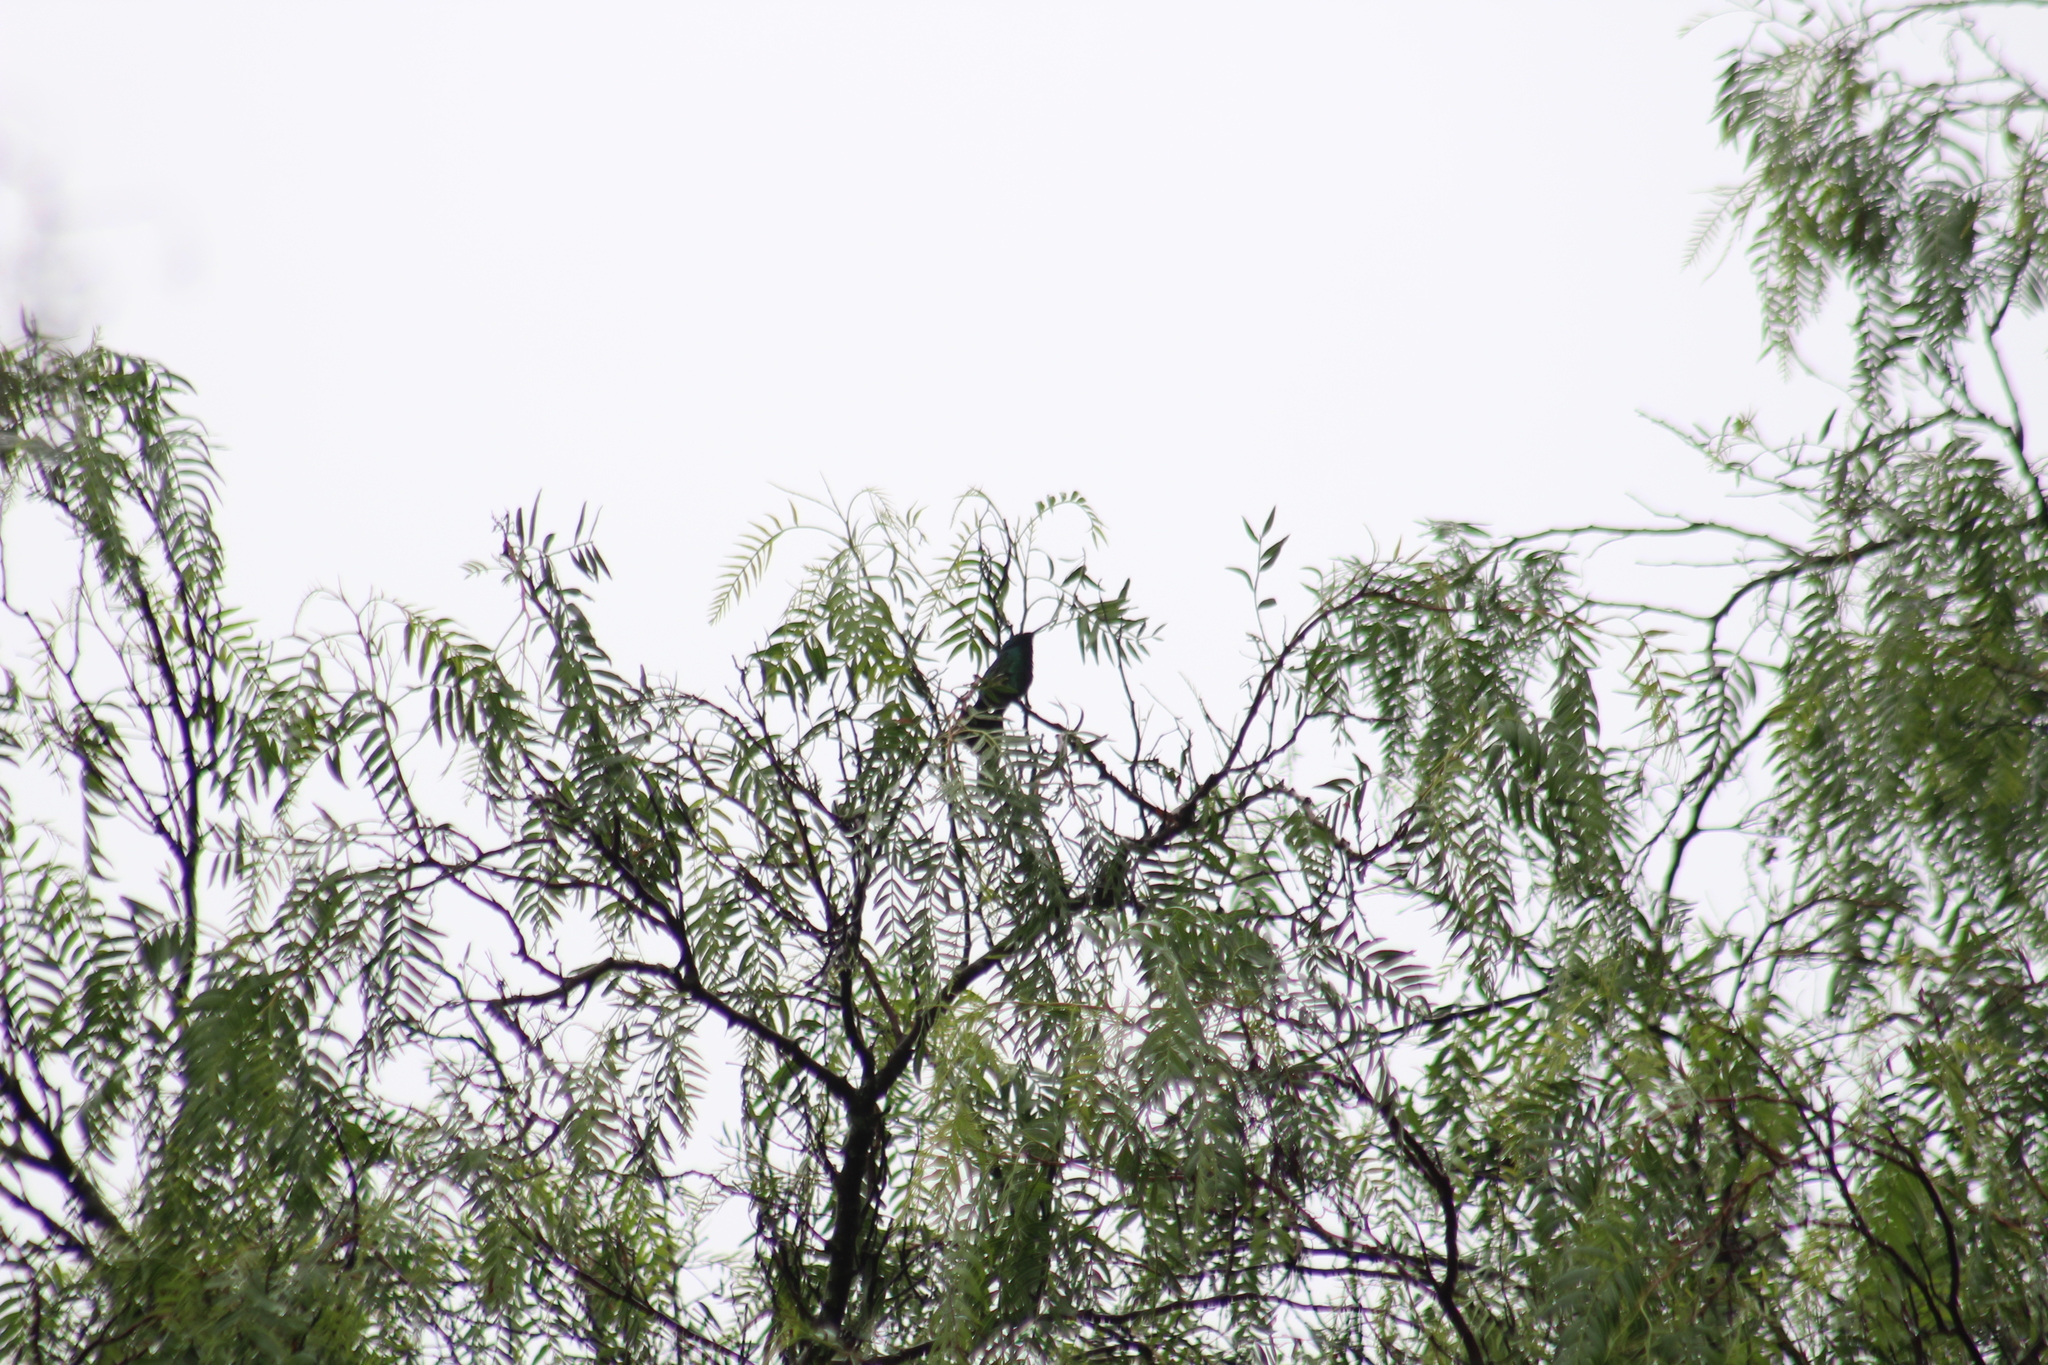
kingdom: Animalia
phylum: Chordata
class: Aves
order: Apodiformes
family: Trochilidae
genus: Colibri
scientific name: Colibri coruscans
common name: Sparkling violetear
